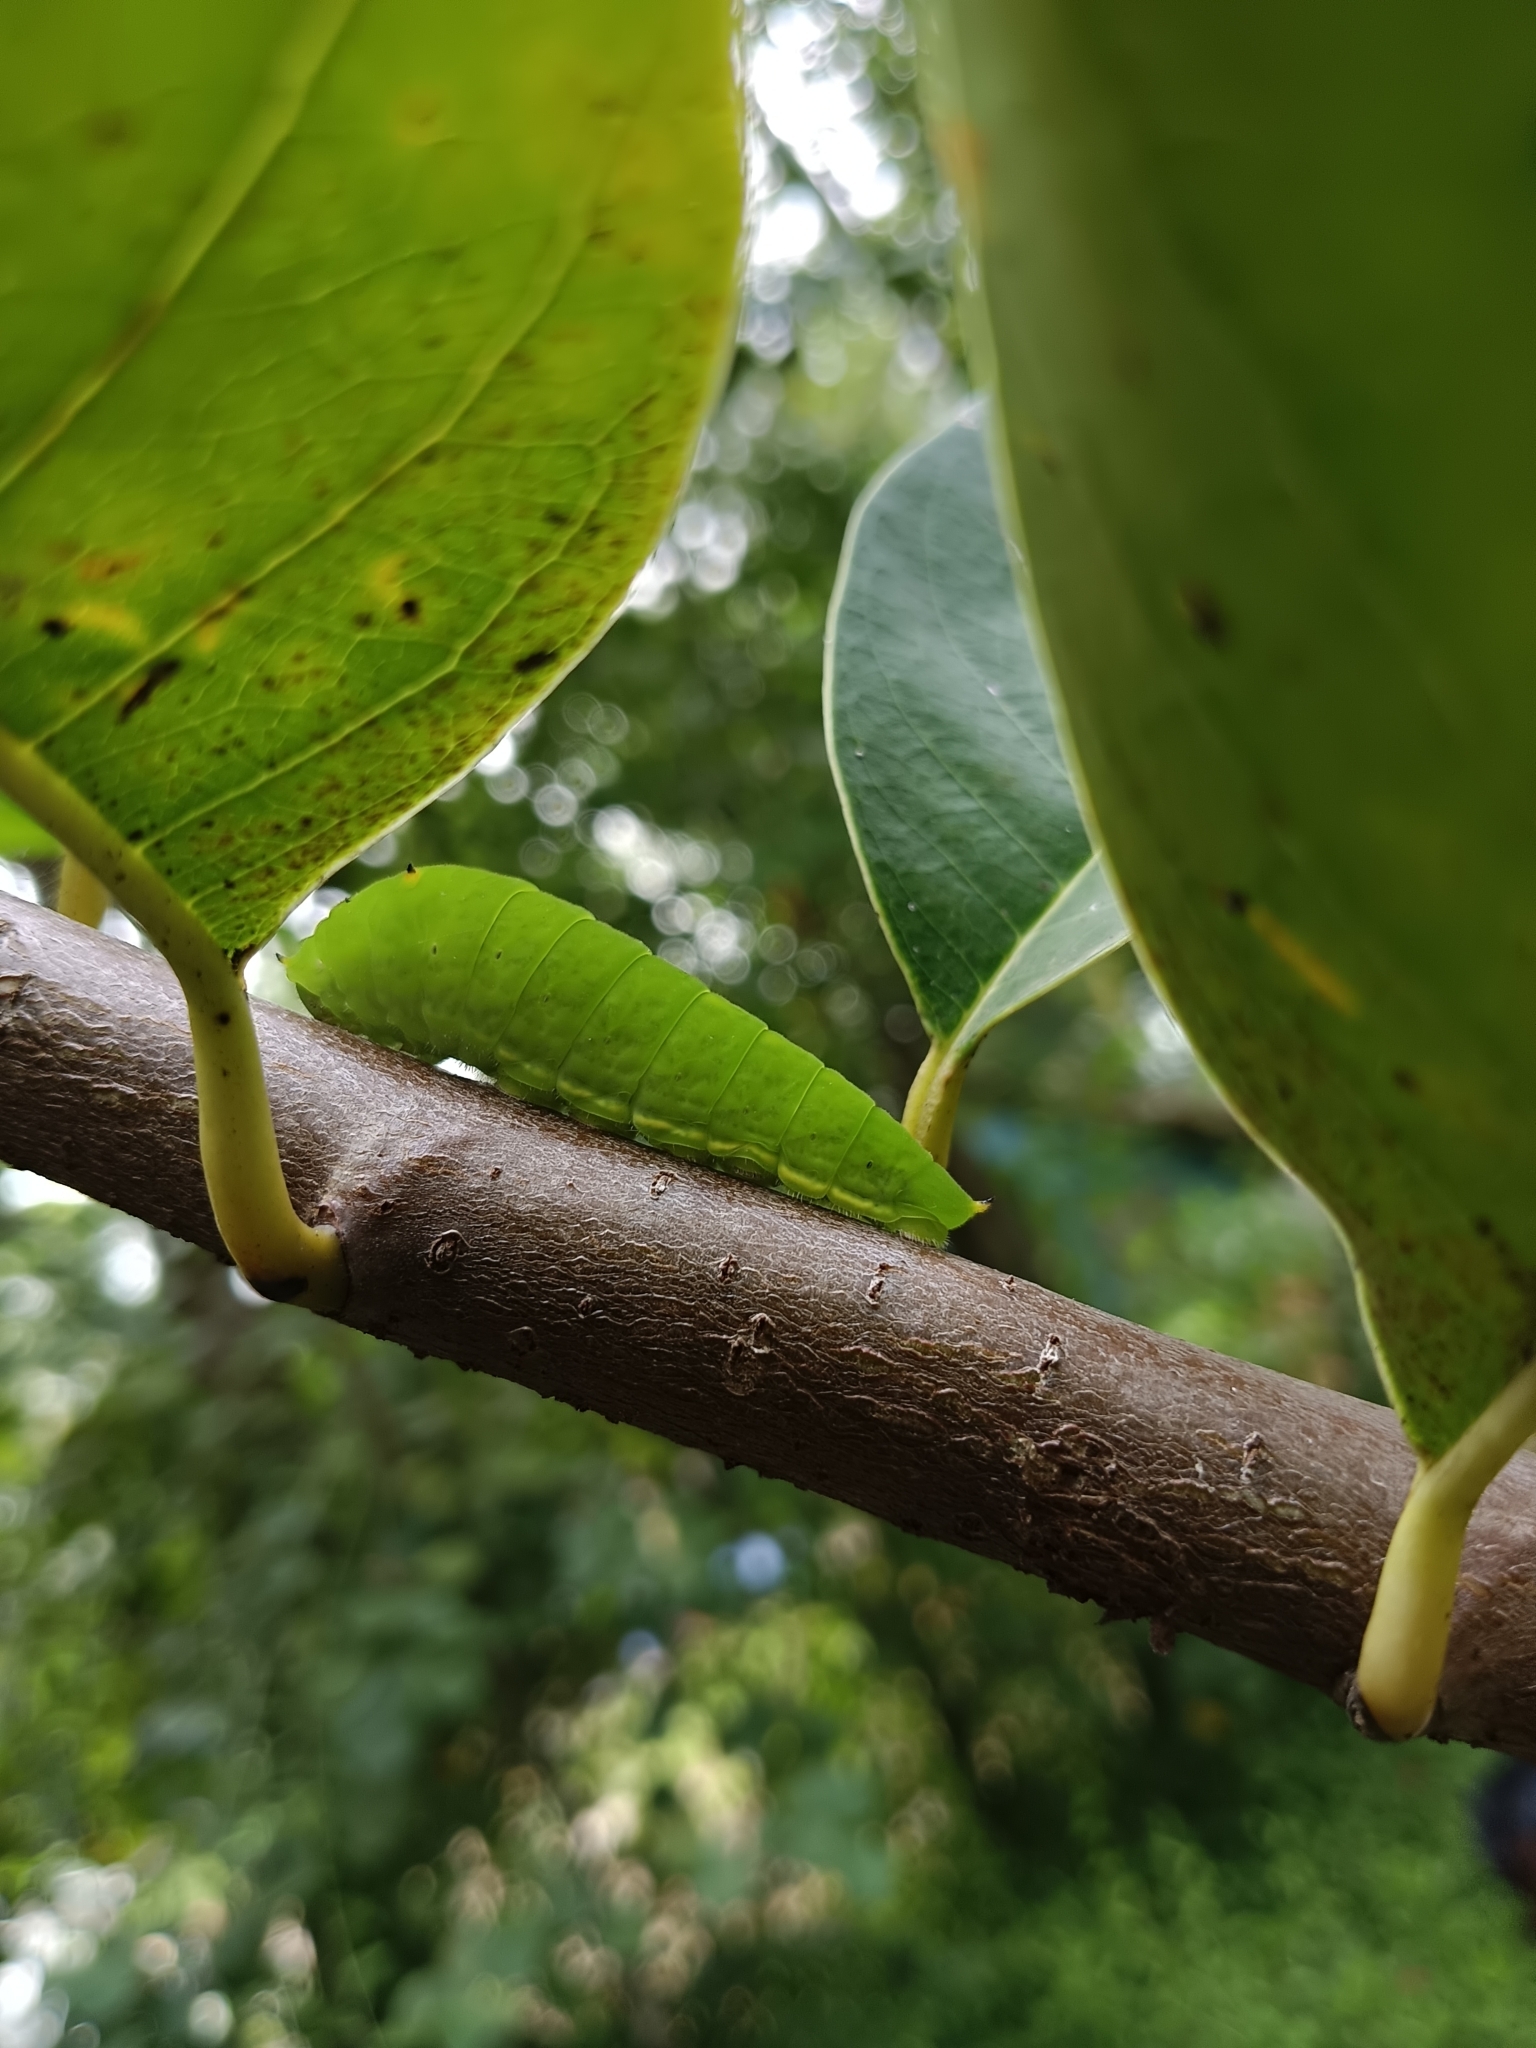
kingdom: Animalia
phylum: Arthropoda
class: Insecta
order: Lepidoptera
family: Papilionidae
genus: Graphium
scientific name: Graphium agamemnon
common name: Tailed jay
